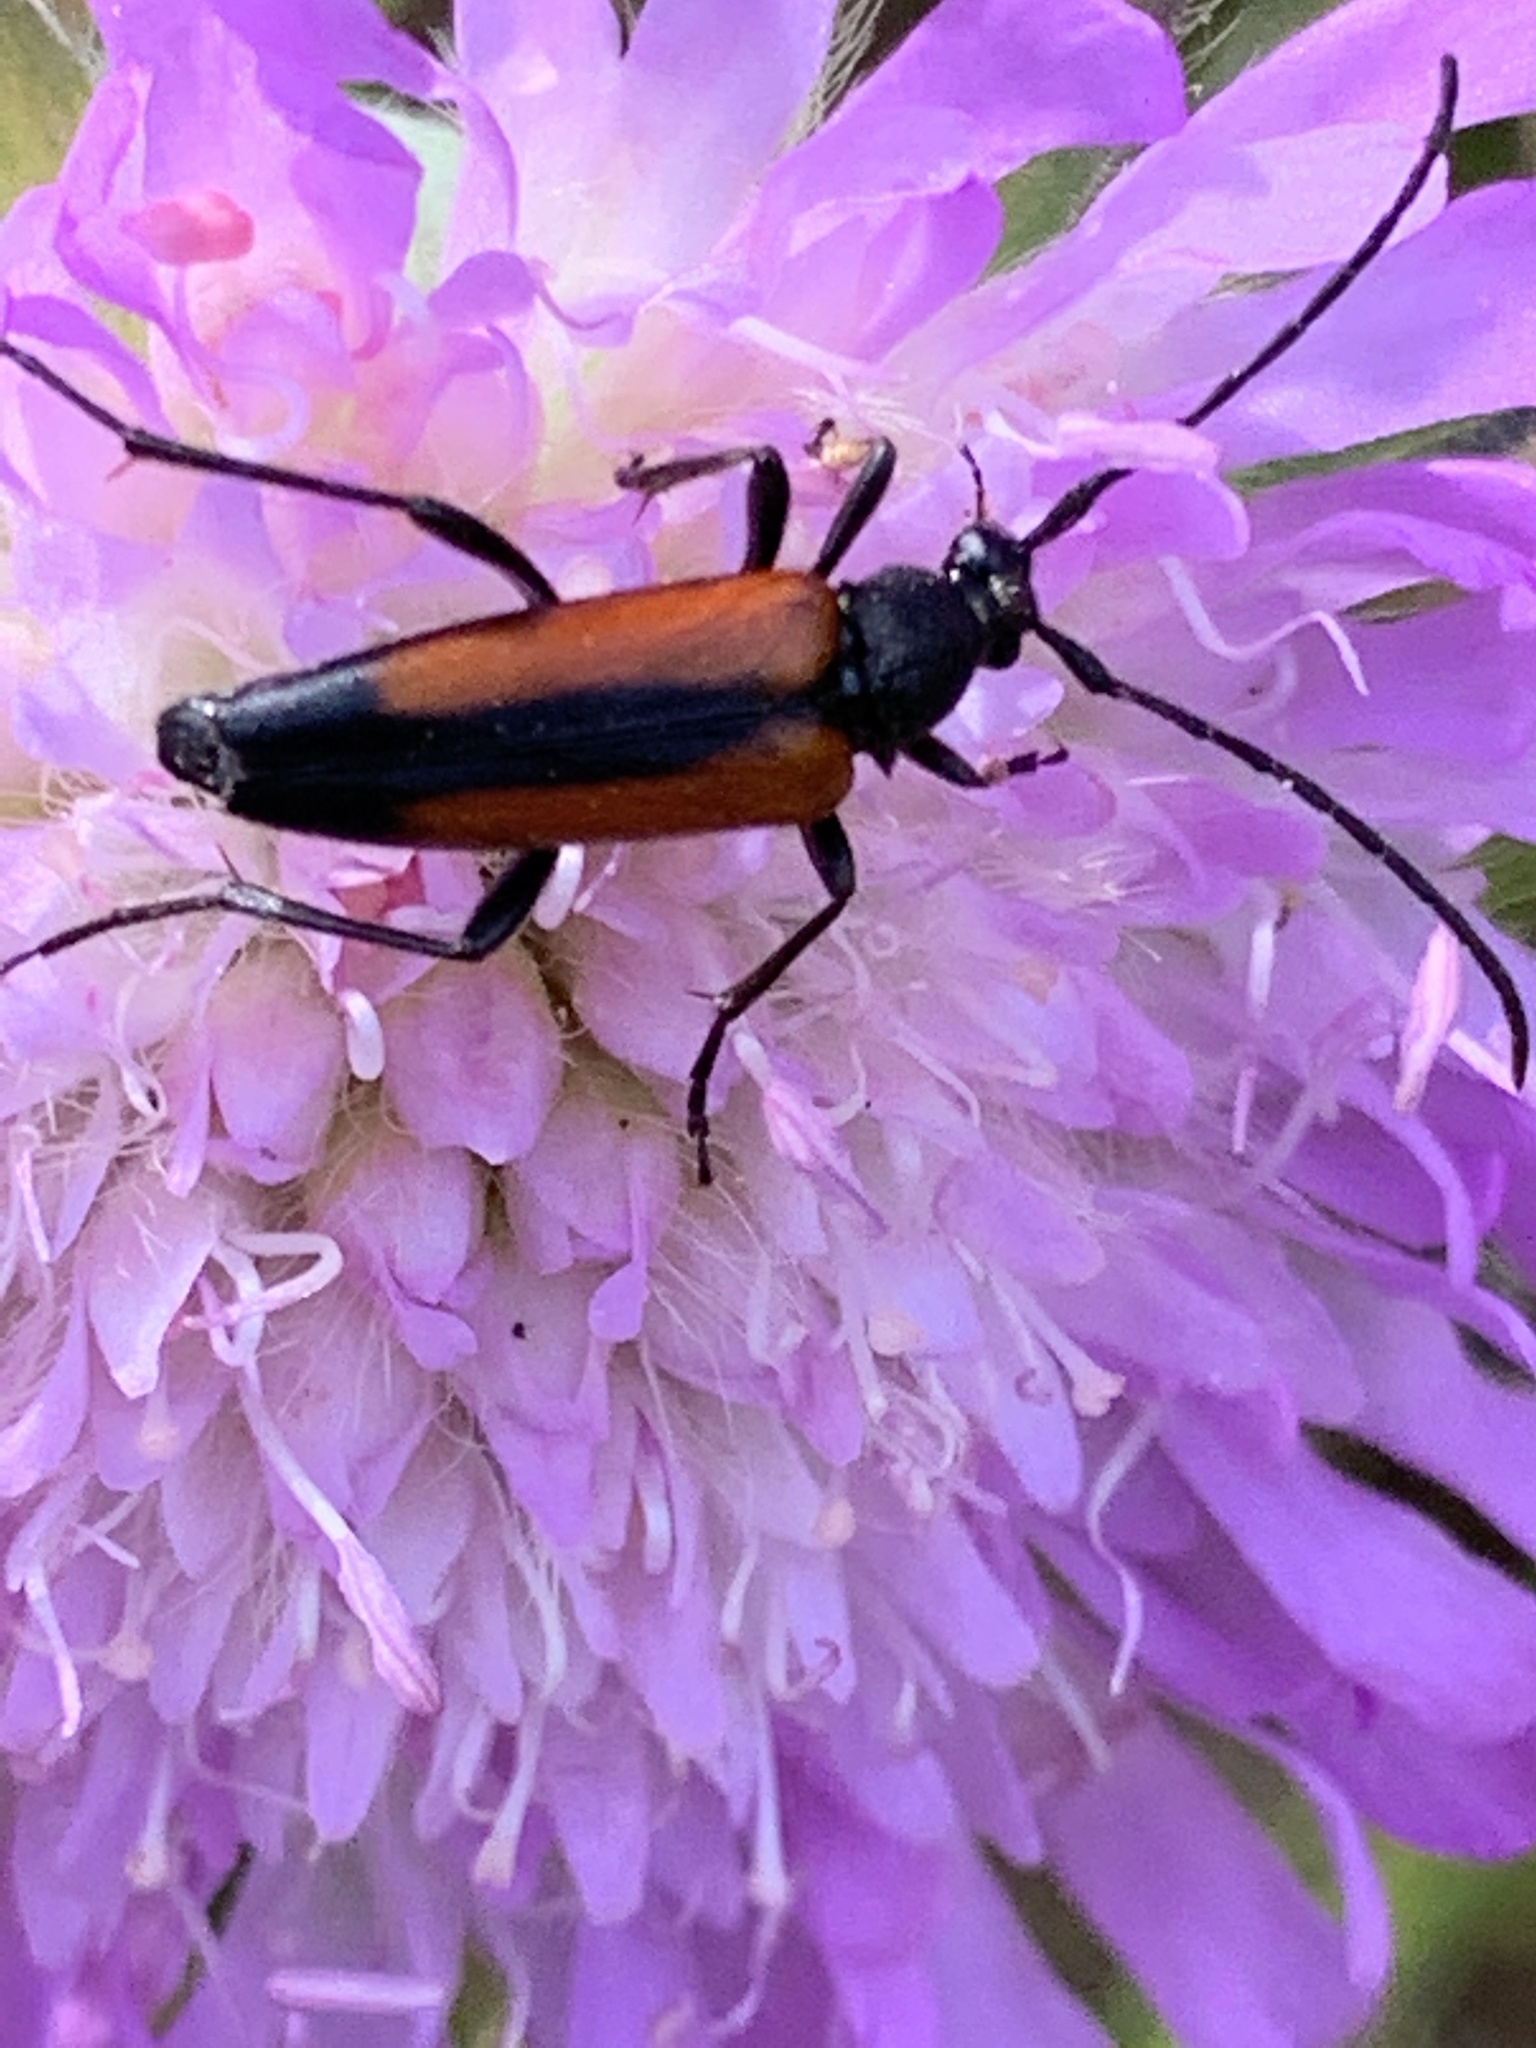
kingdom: Animalia
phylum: Arthropoda
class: Insecta
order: Coleoptera
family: Cerambycidae
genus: Stenurella
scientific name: Stenurella melanura
